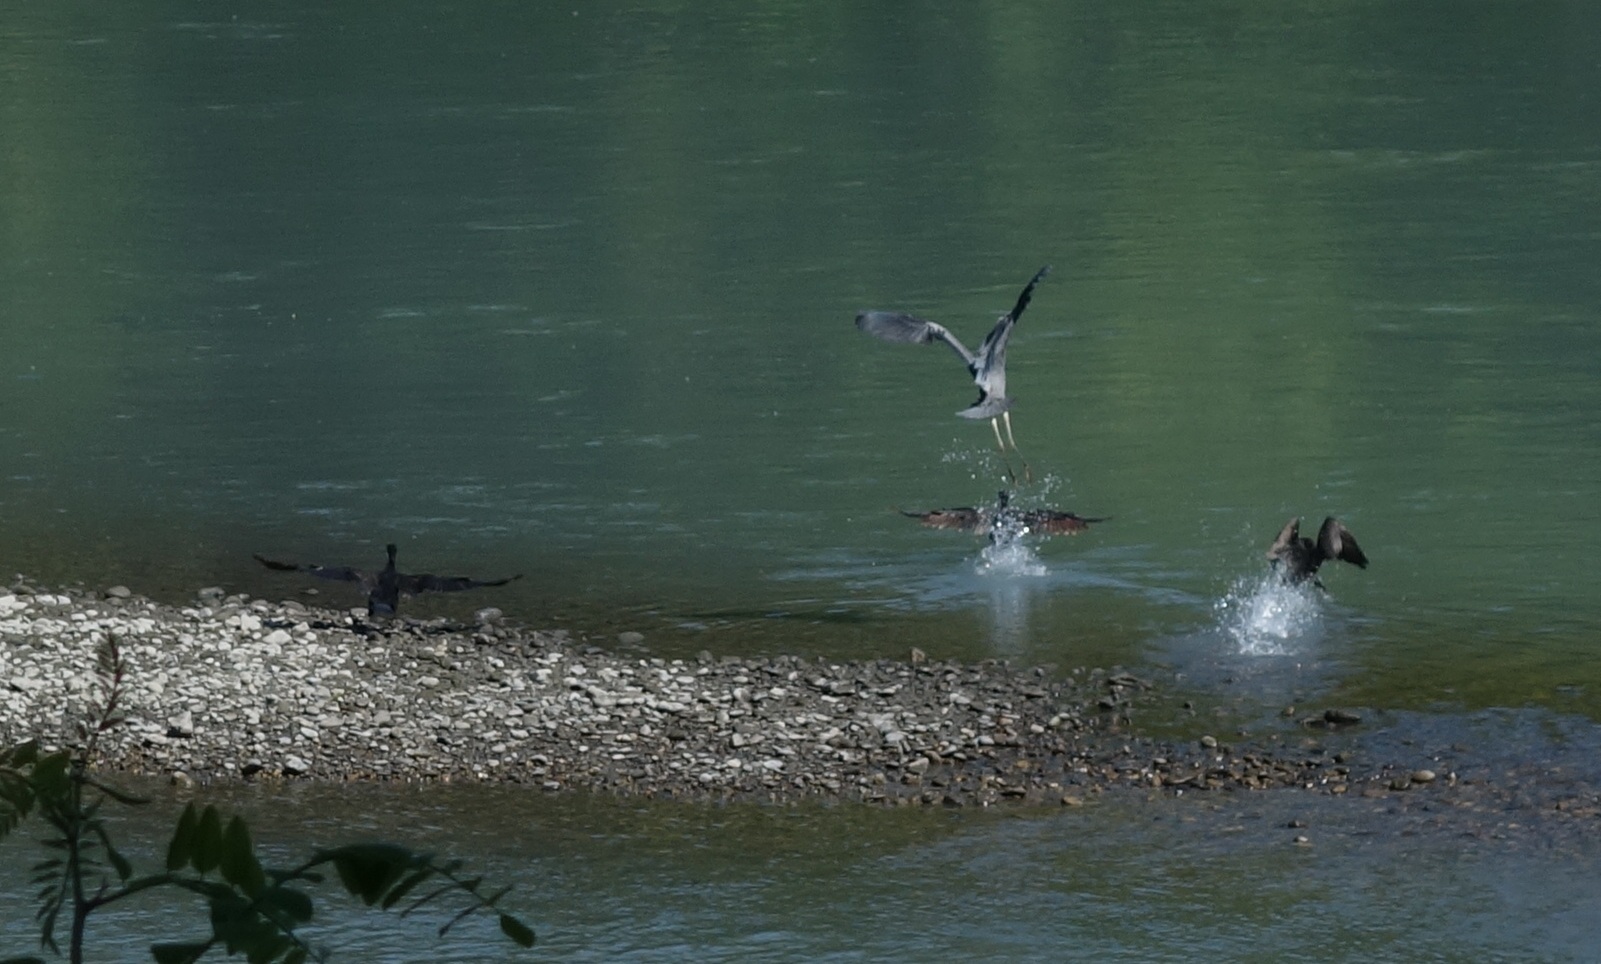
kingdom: Animalia
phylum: Chordata
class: Aves
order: Pelecaniformes
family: Ardeidae
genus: Ardea
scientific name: Ardea cinerea
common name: Grey heron
